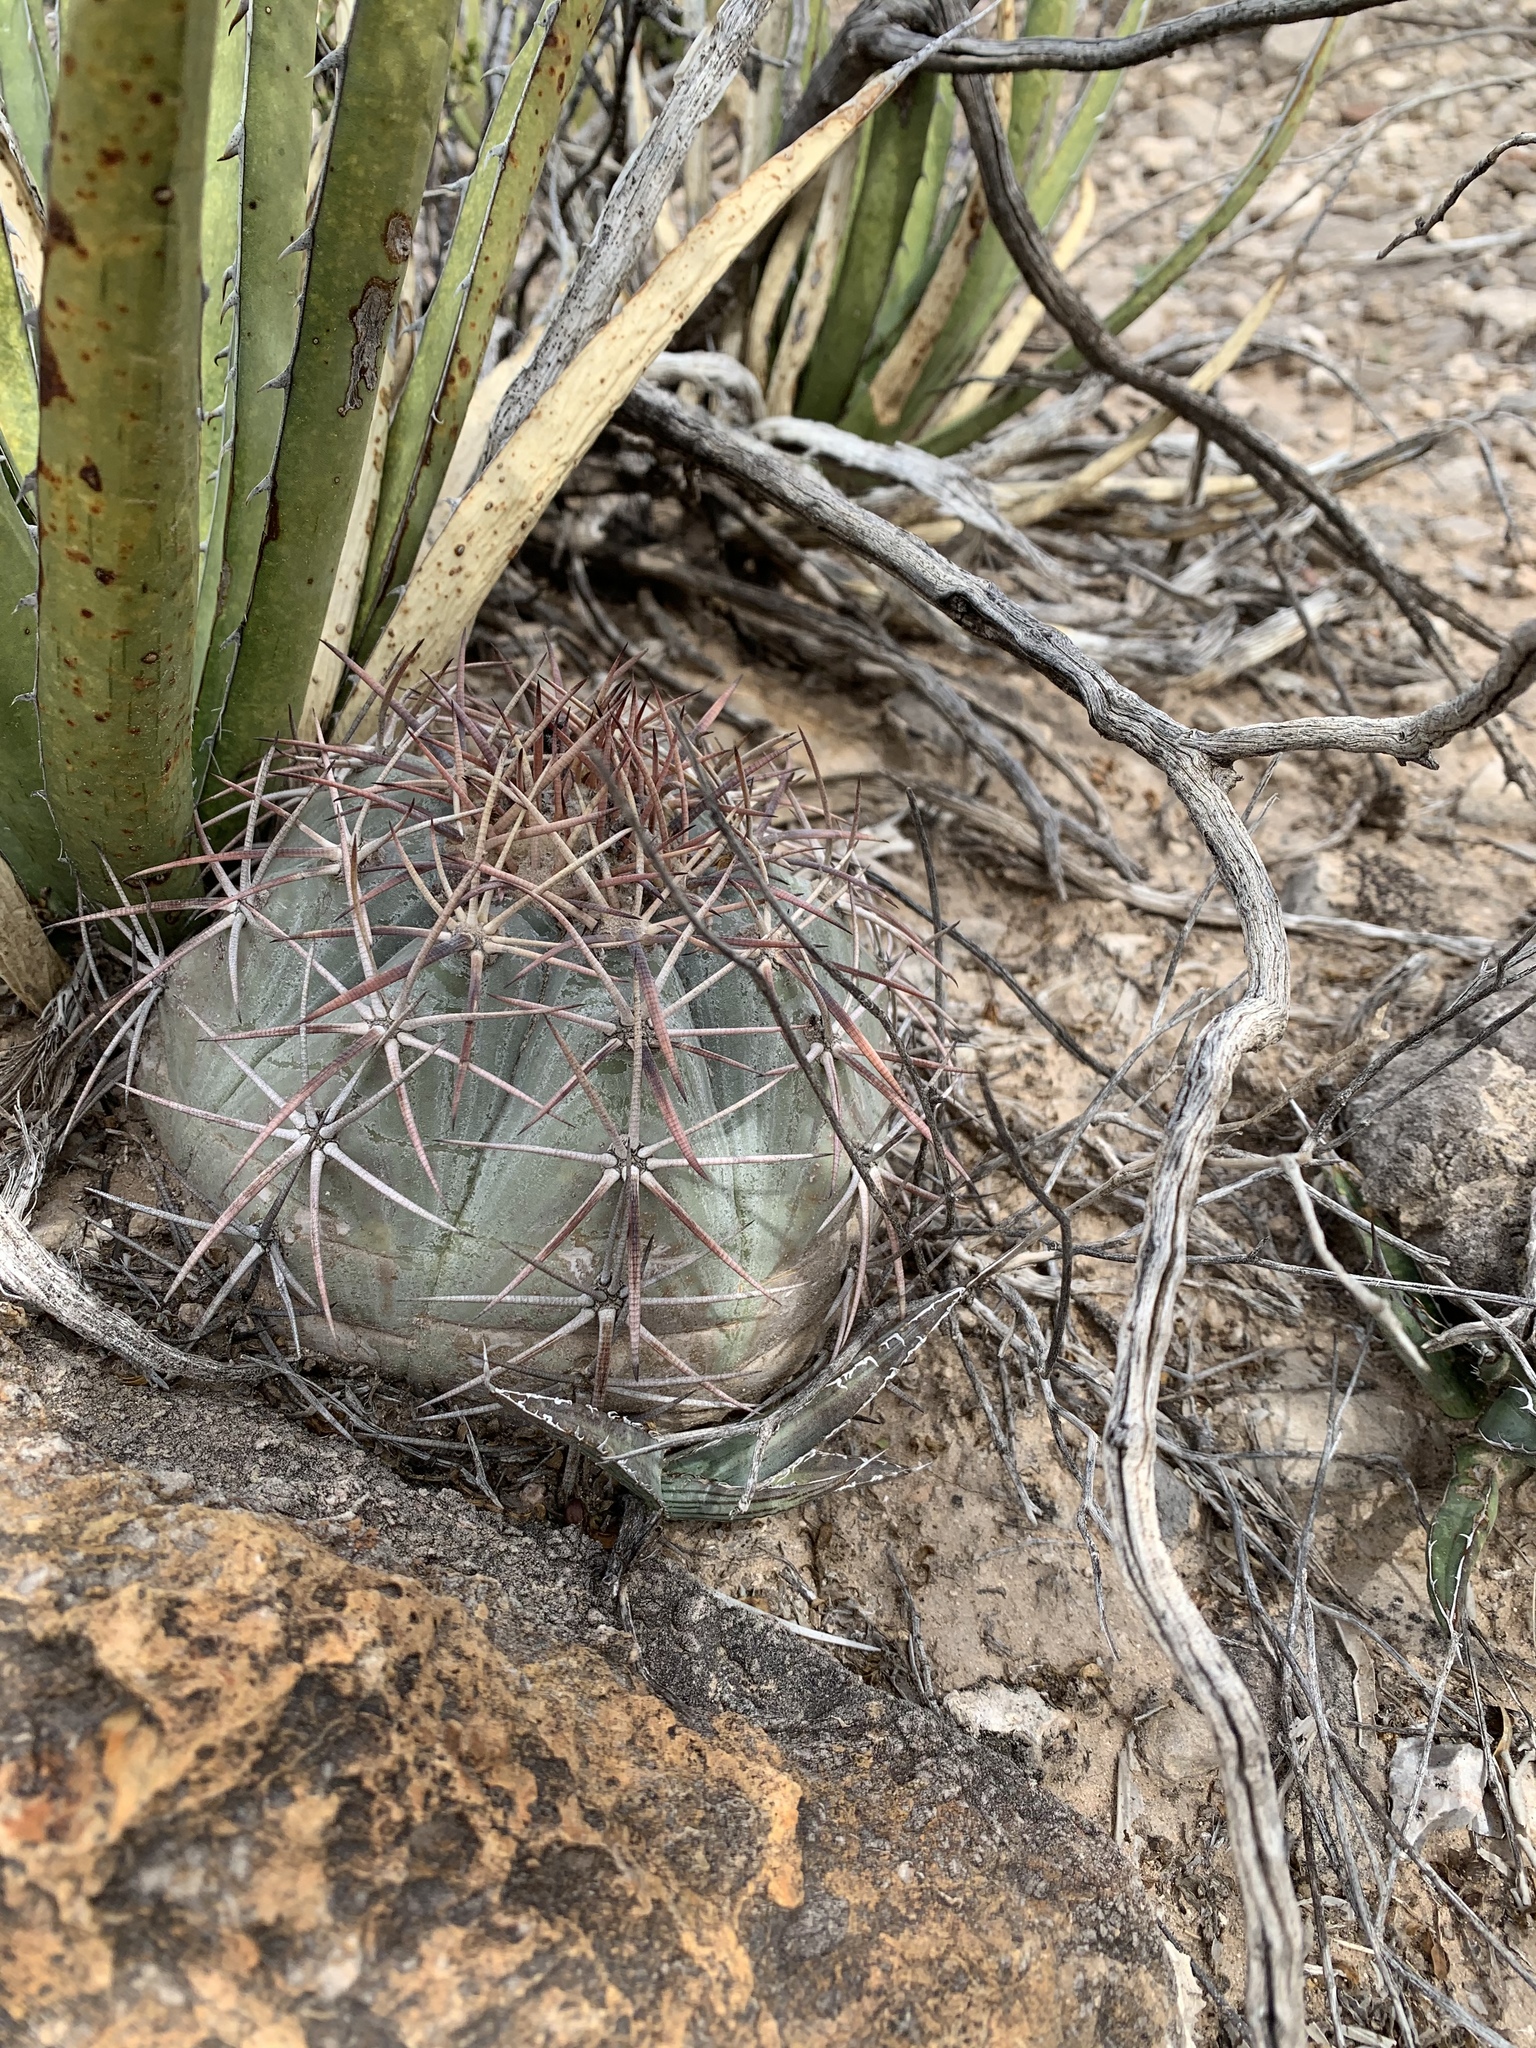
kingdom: Plantae
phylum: Tracheophyta
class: Magnoliopsida
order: Caryophyllales
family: Cactaceae
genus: Echinocactus
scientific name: Echinocactus horizonthalonius
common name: Devilshead
